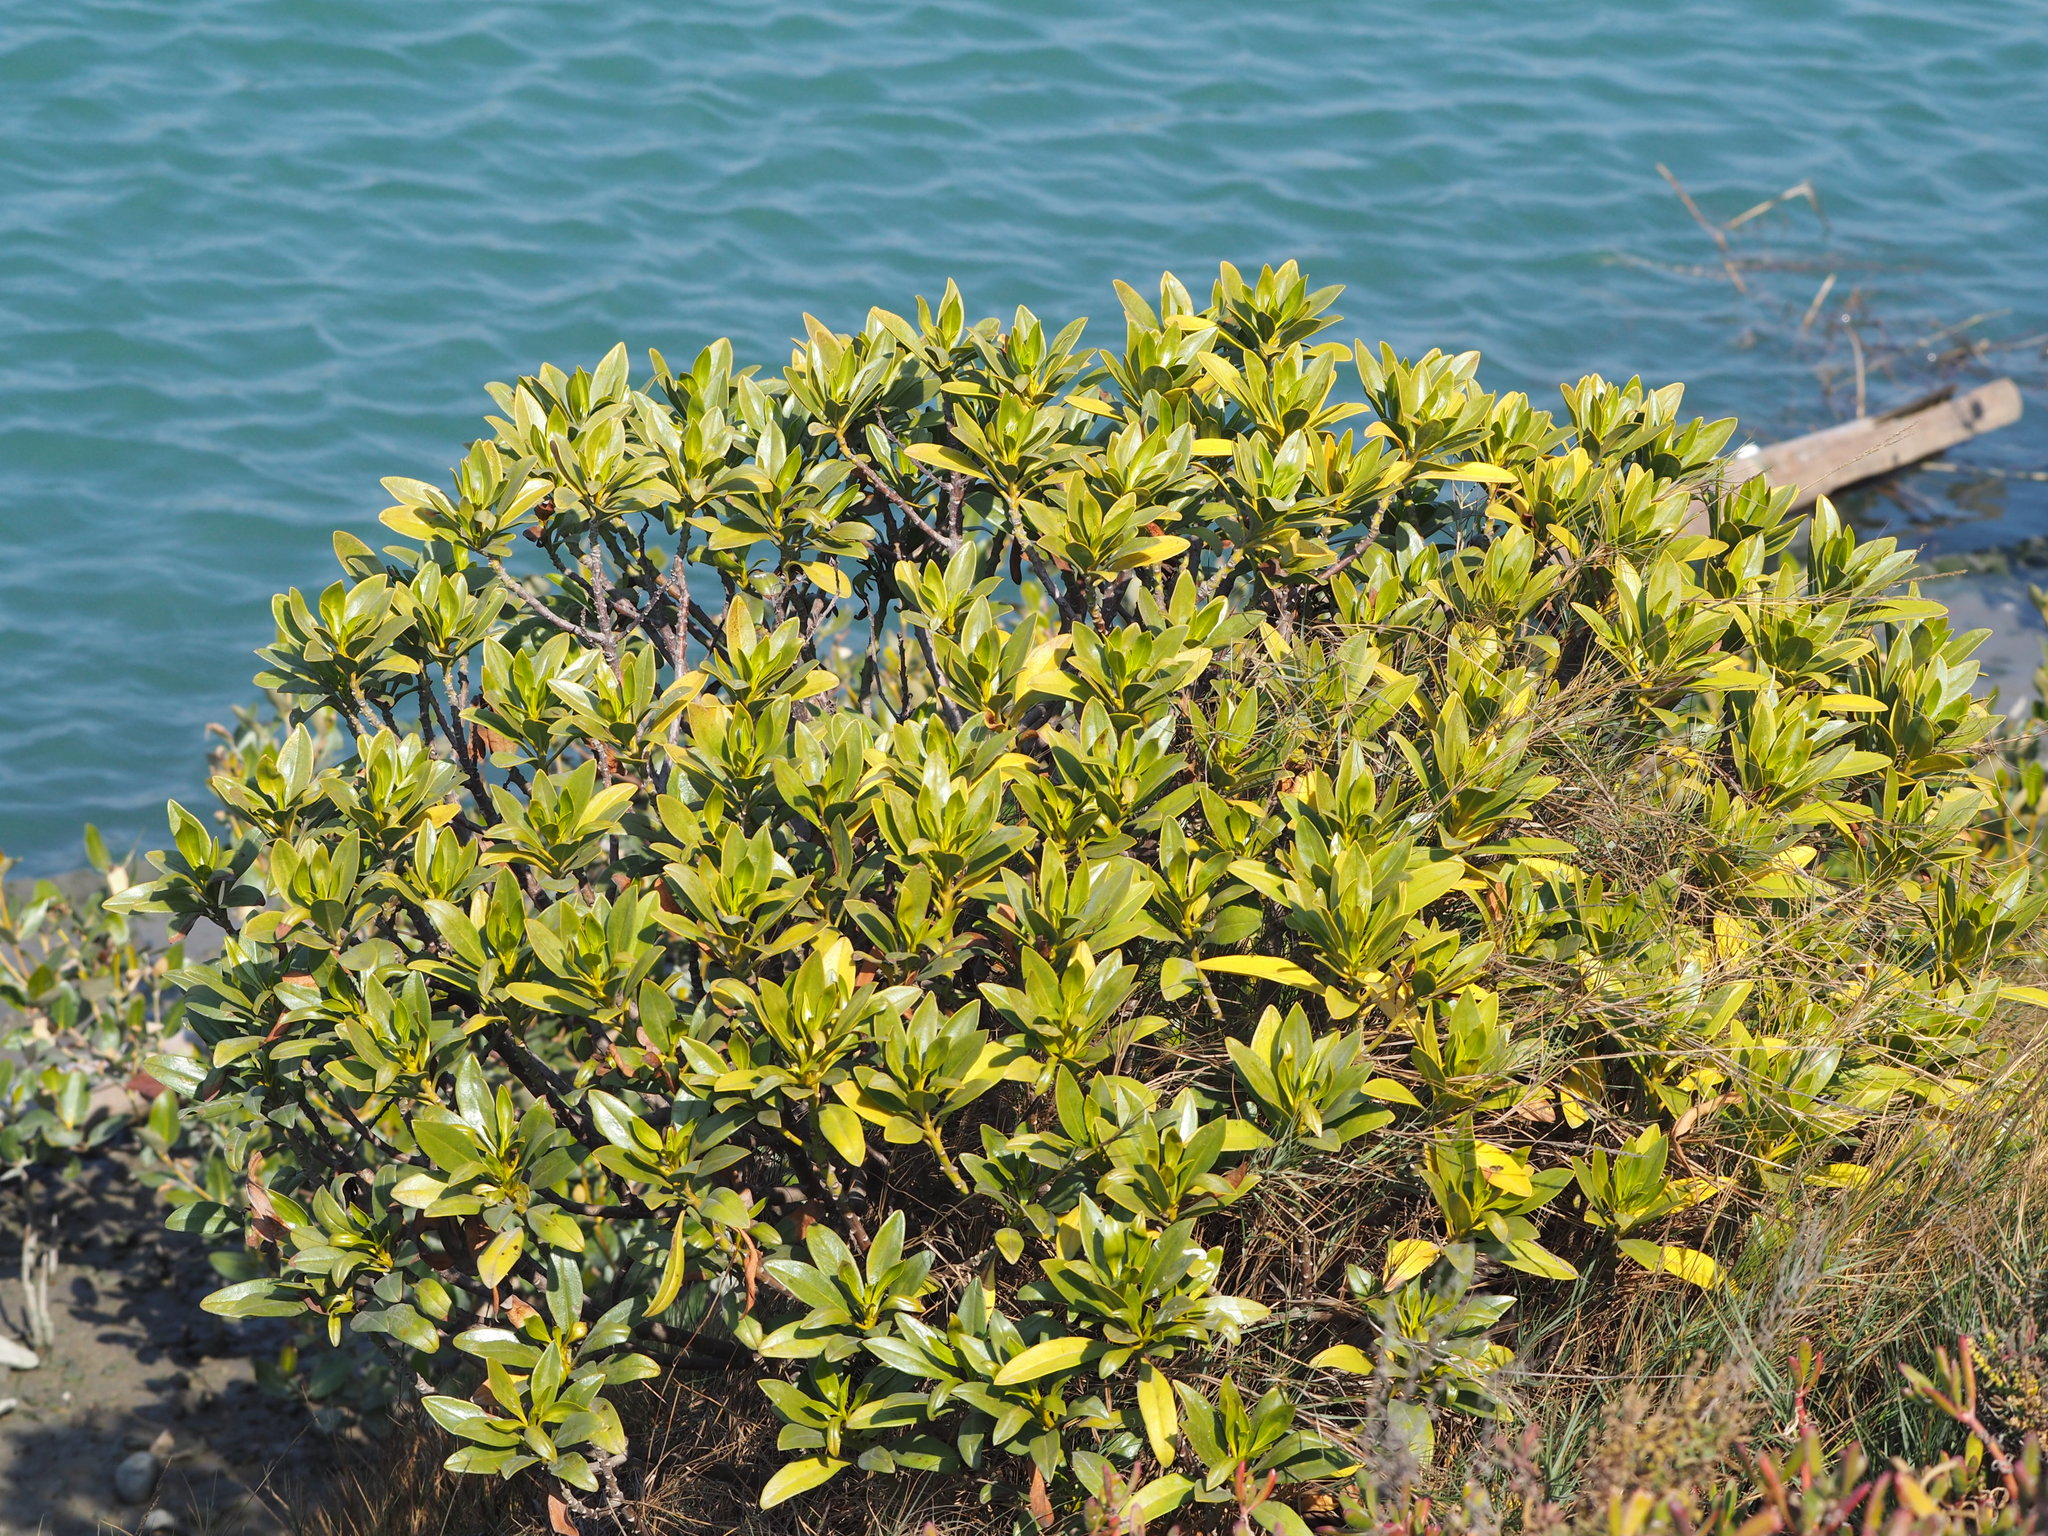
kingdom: Plantae
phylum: Tracheophyta
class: Magnoliopsida
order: Lamiales
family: Scrophulariaceae
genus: Myoporum
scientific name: Myoporum bontioides
